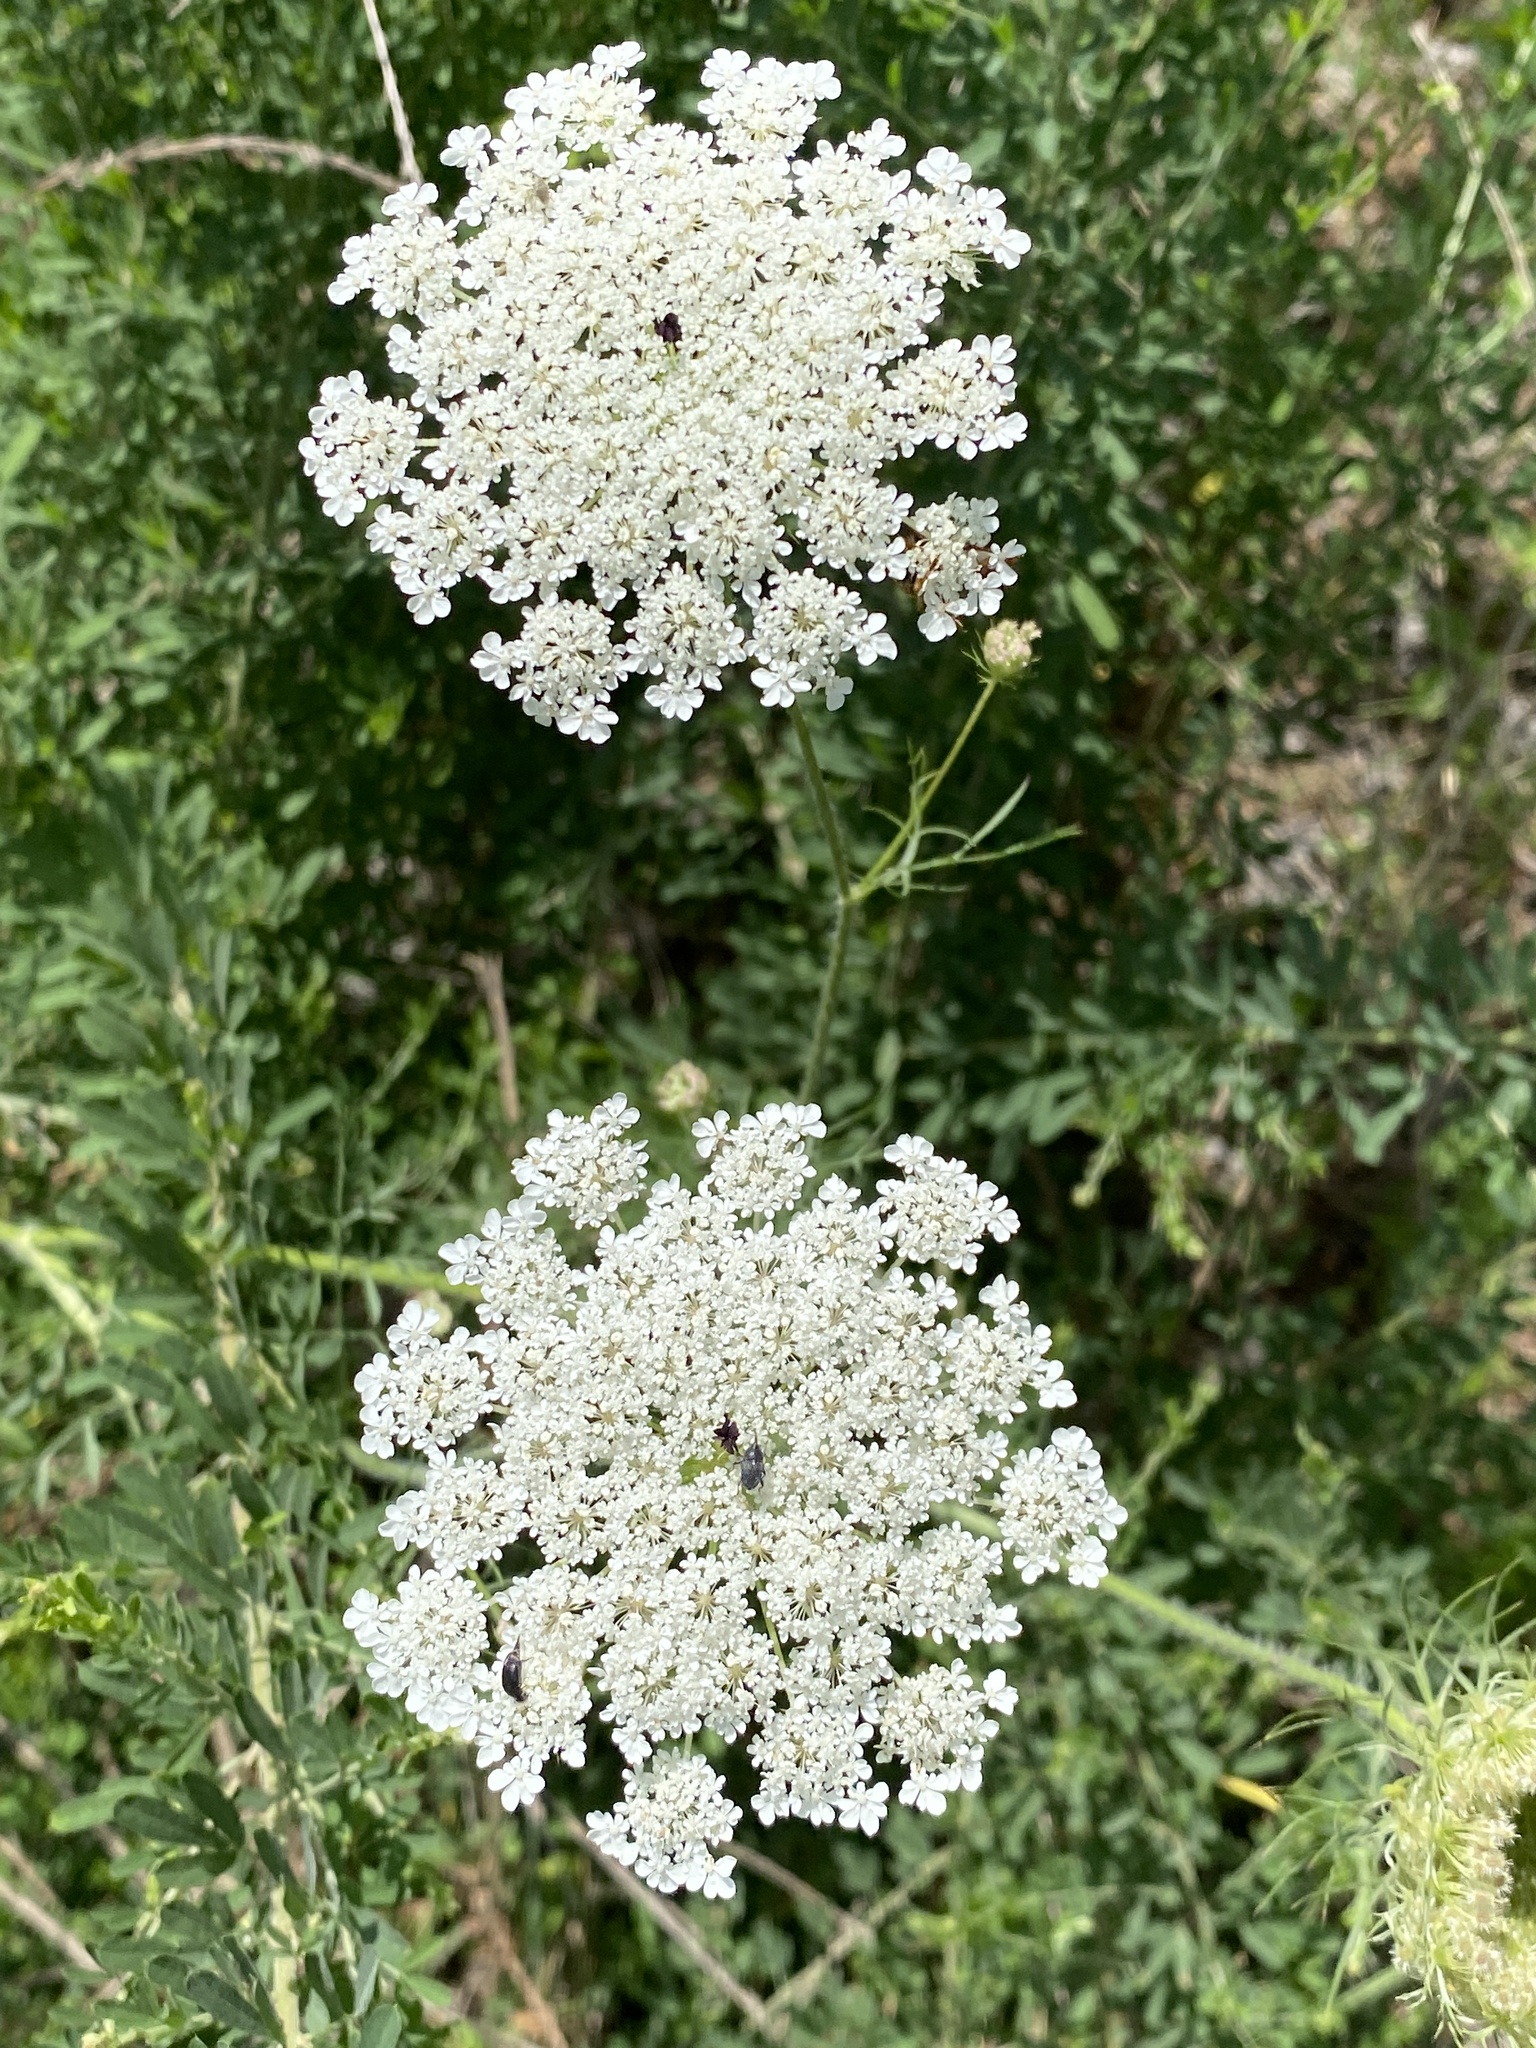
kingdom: Plantae
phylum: Tracheophyta
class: Magnoliopsida
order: Apiales
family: Apiaceae
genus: Daucus
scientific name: Daucus carota
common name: Wild carrot
